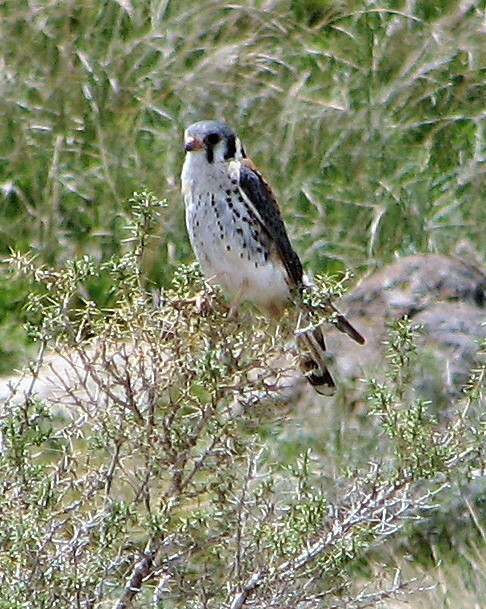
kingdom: Animalia
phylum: Chordata
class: Aves
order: Falconiformes
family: Falconidae
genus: Falco
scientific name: Falco sparverius
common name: American kestrel
